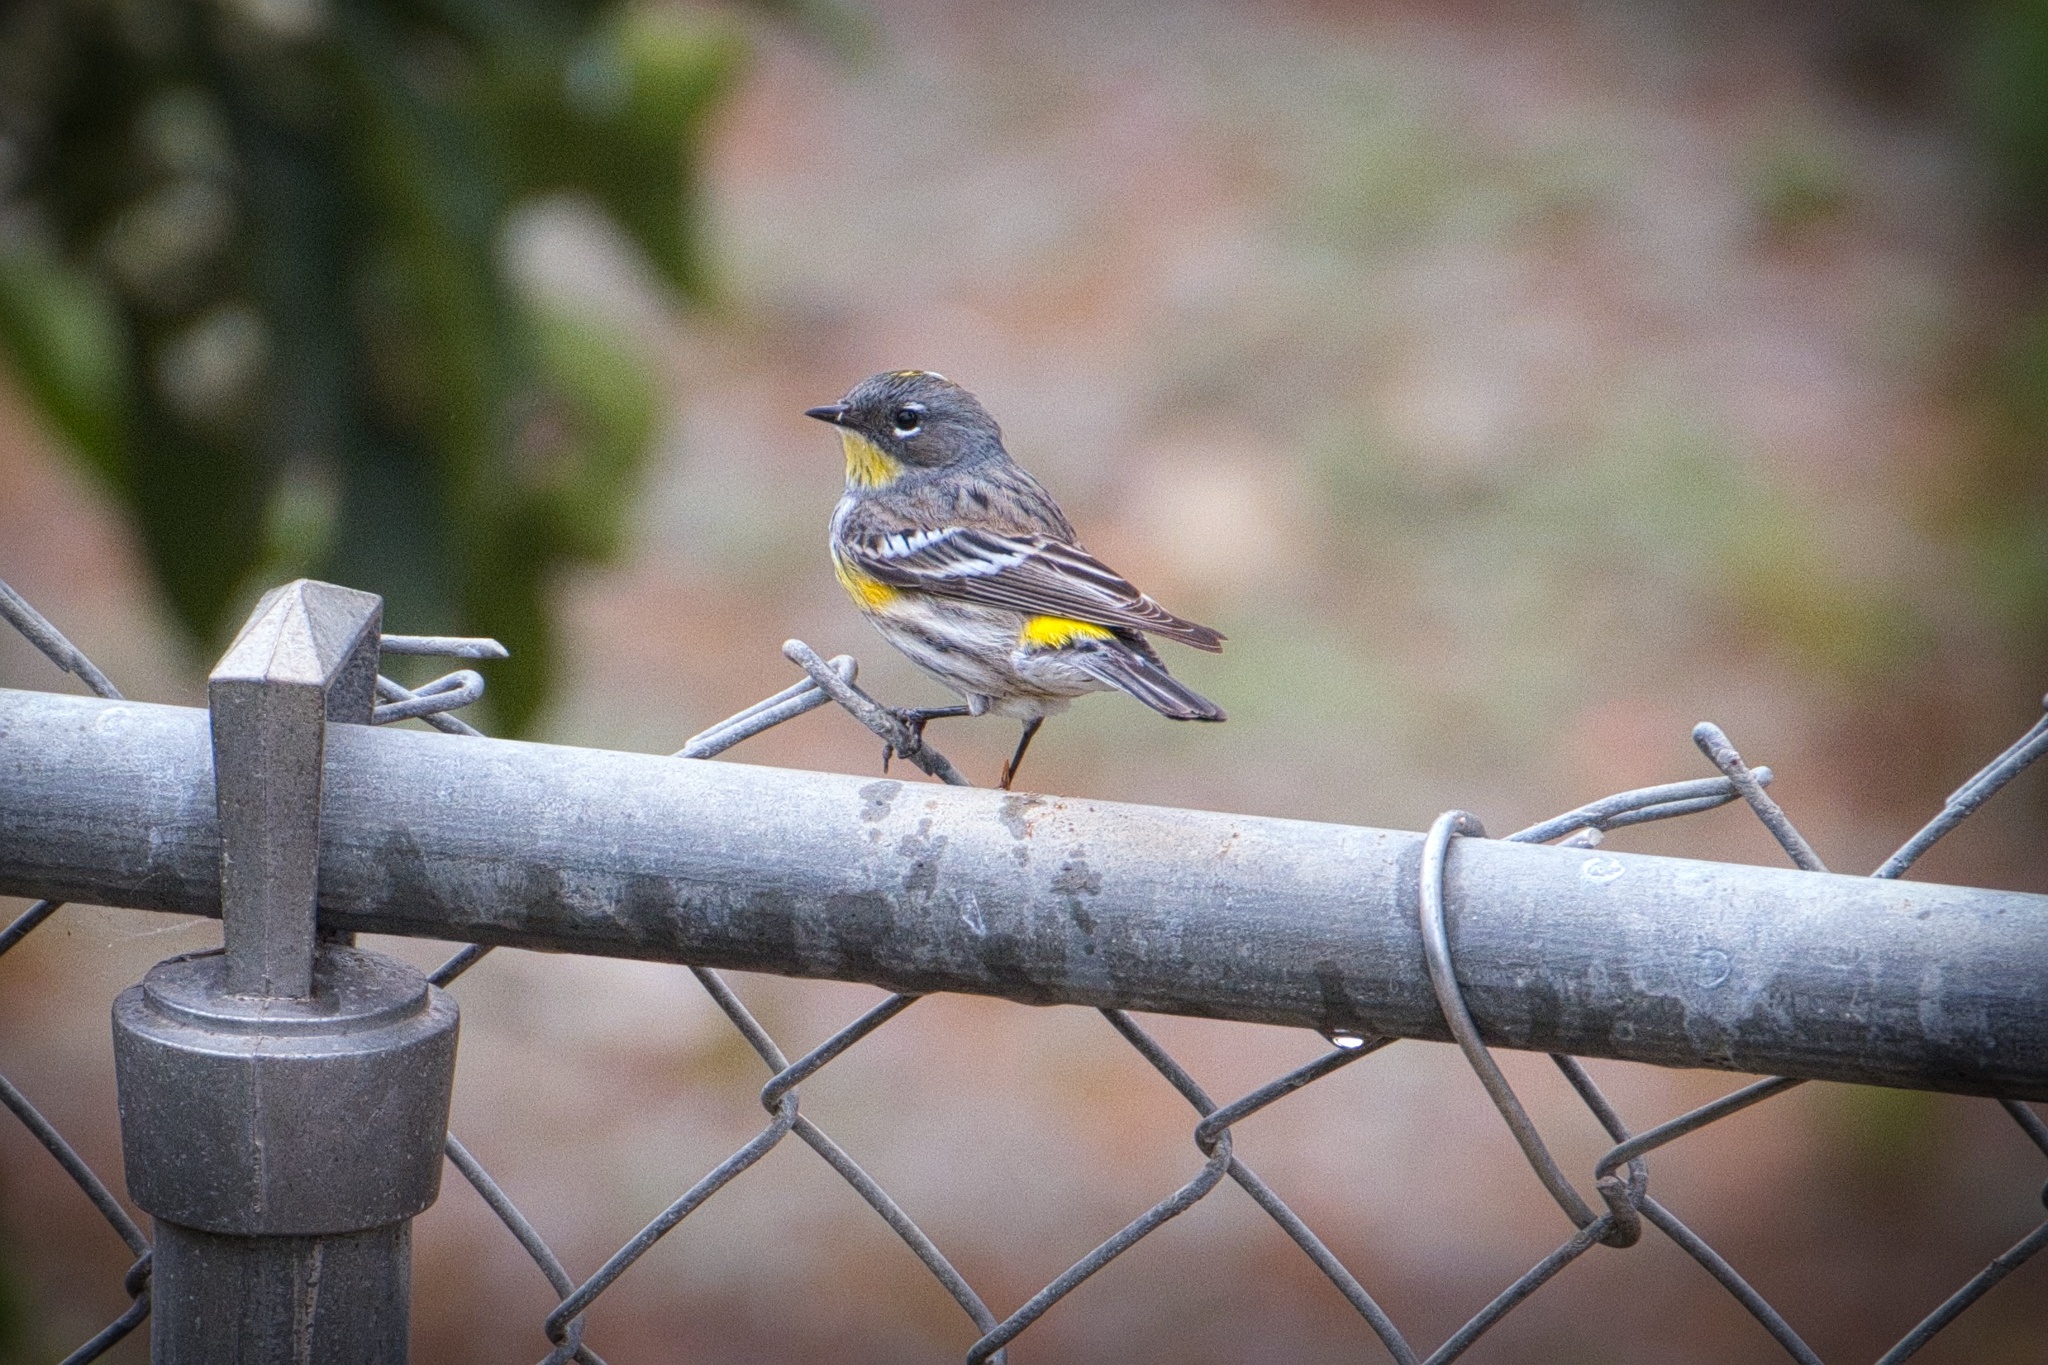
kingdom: Animalia
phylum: Chordata
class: Aves
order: Passeriformes
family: Parulidae
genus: Setophaga
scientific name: Setophaga coronata
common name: Myrtle warbler
